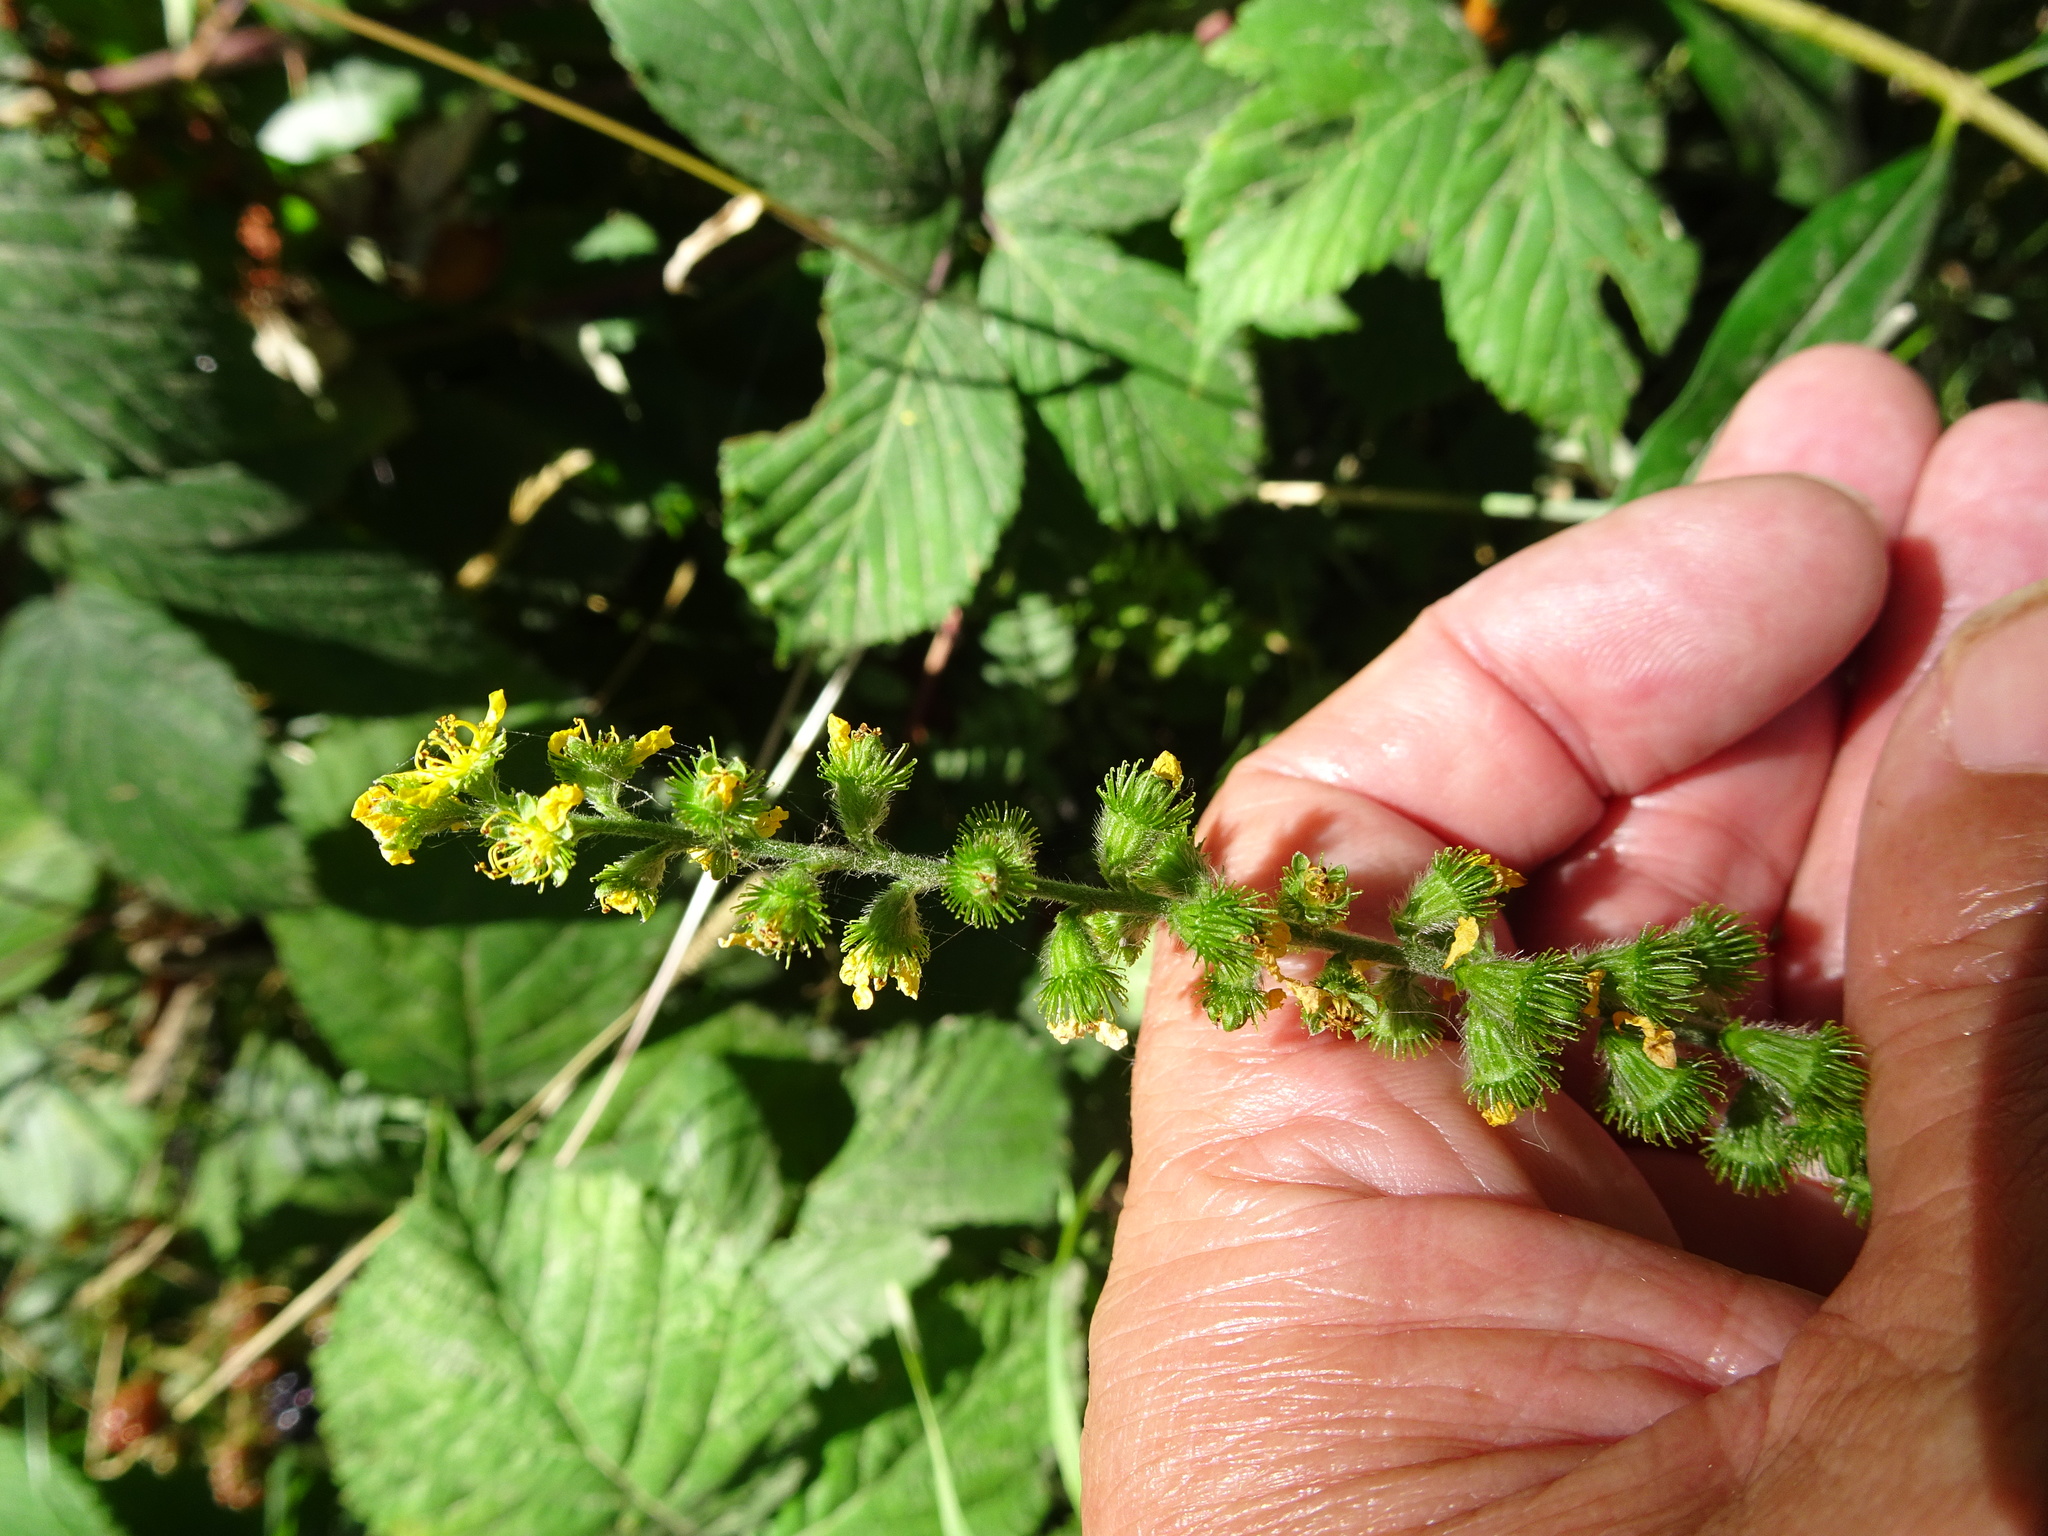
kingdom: Plantae
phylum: Tracheophyta
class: Magnoliopsida
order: Rosales
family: Rosaceae
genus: Agrimonia
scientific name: Agrimonia eupatoria
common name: Agrimony
